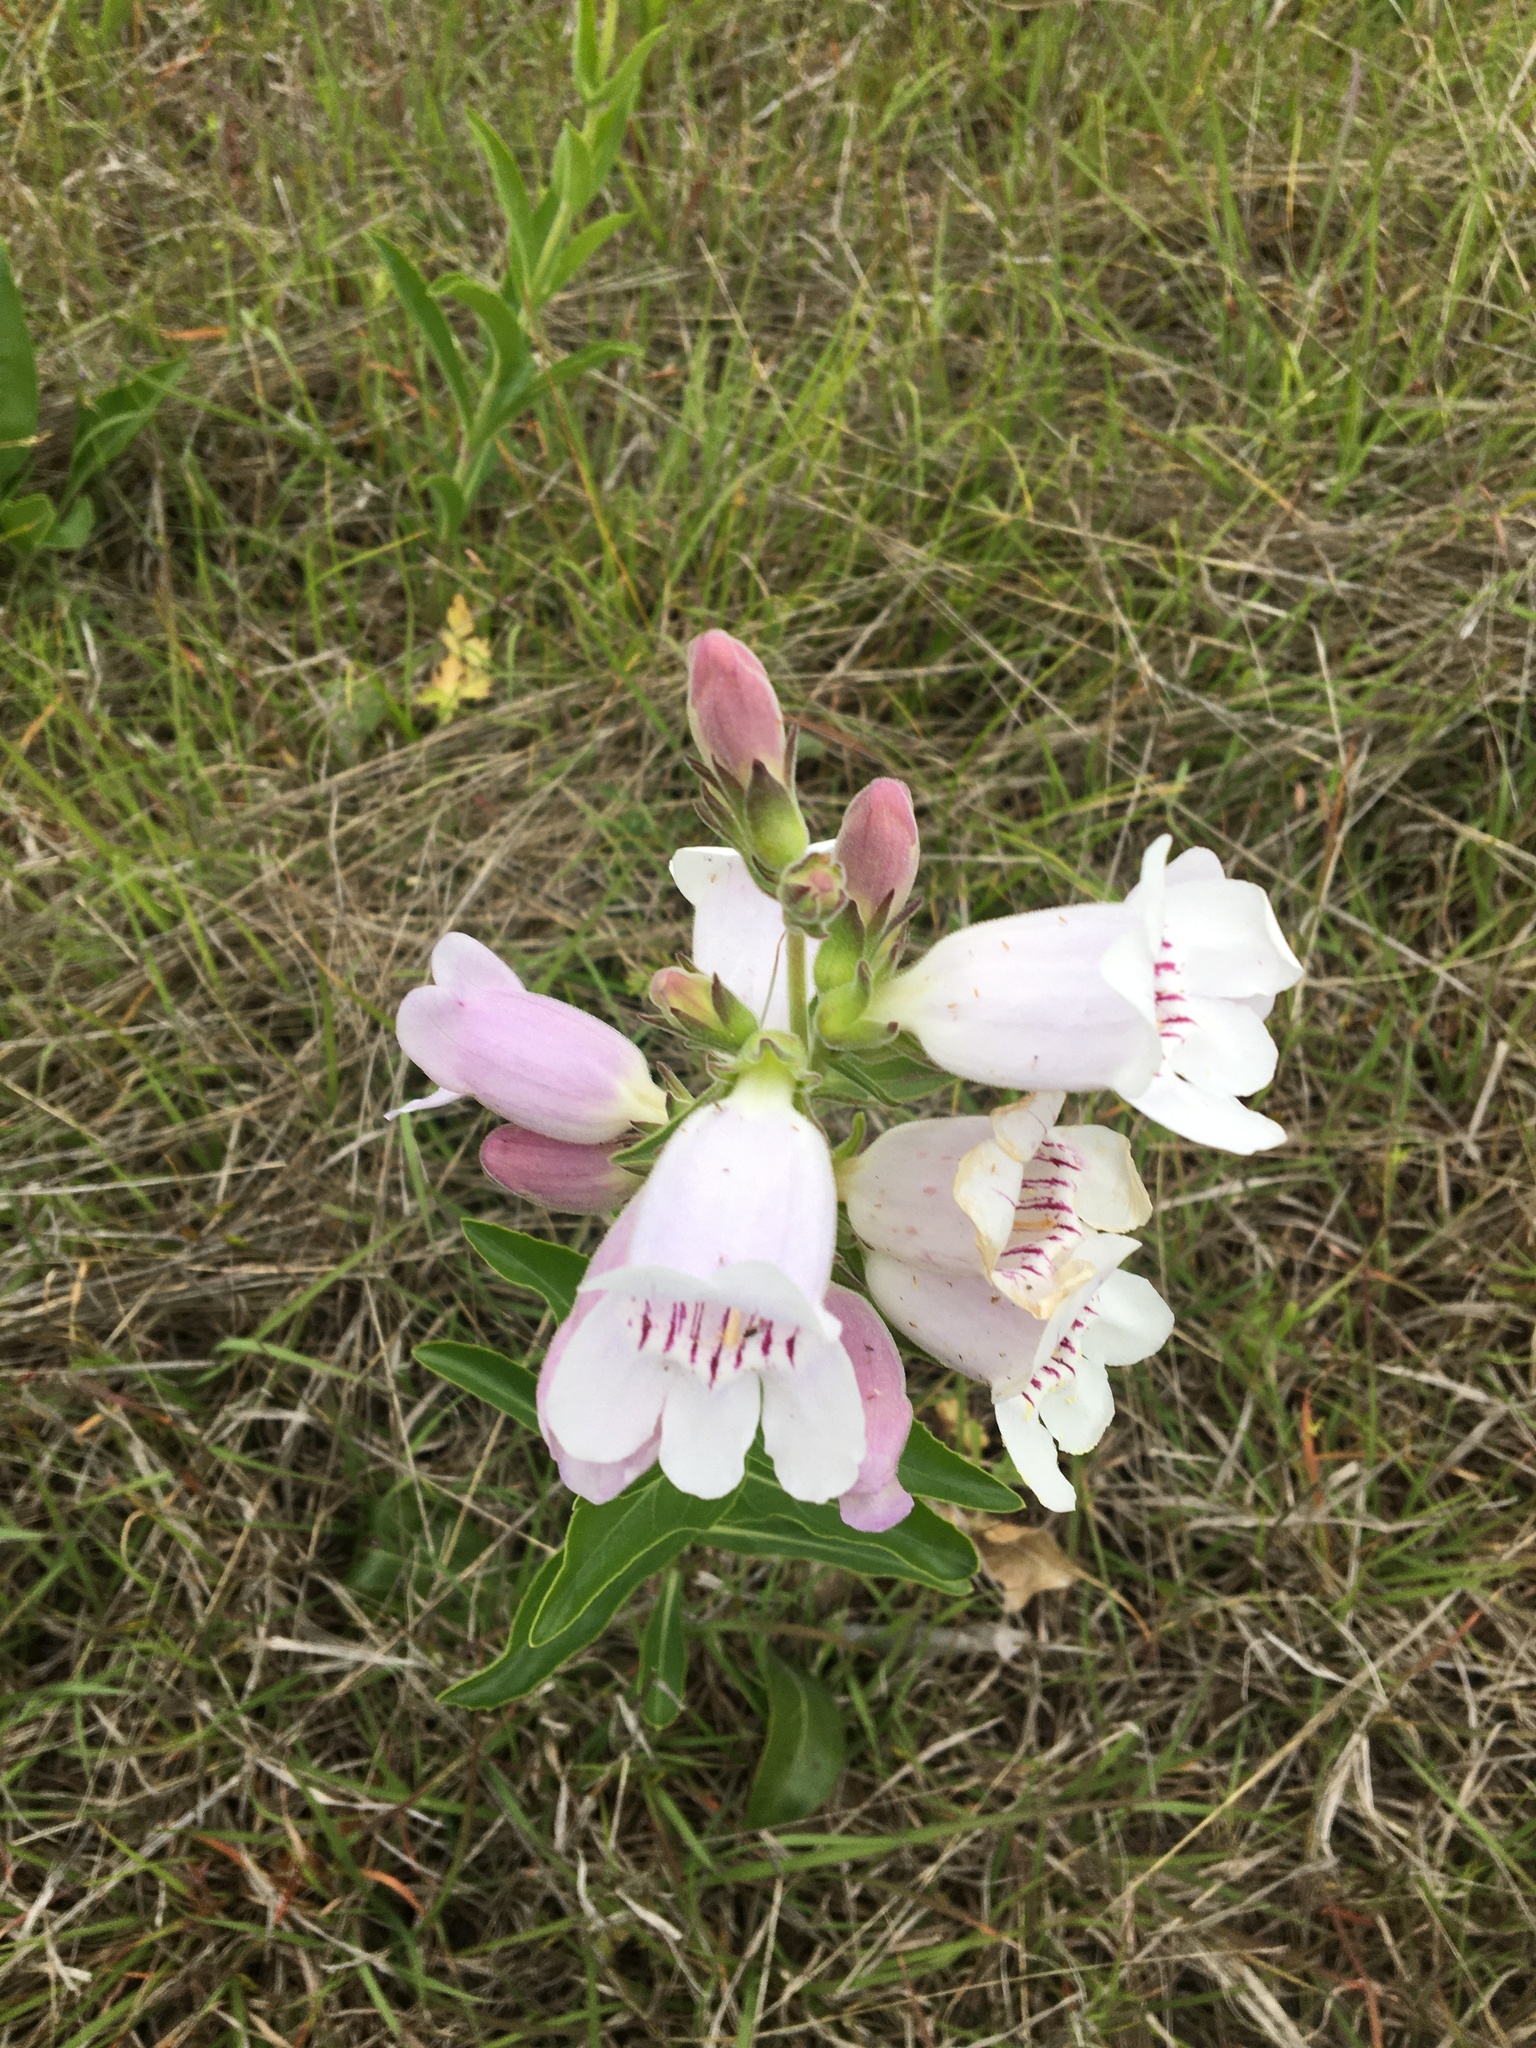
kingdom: Plantae
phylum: Tracheophyta
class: Magnoliopsida
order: Lamiales
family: Plantaginaceae
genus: Penstemon
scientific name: Penstemon cobaea
